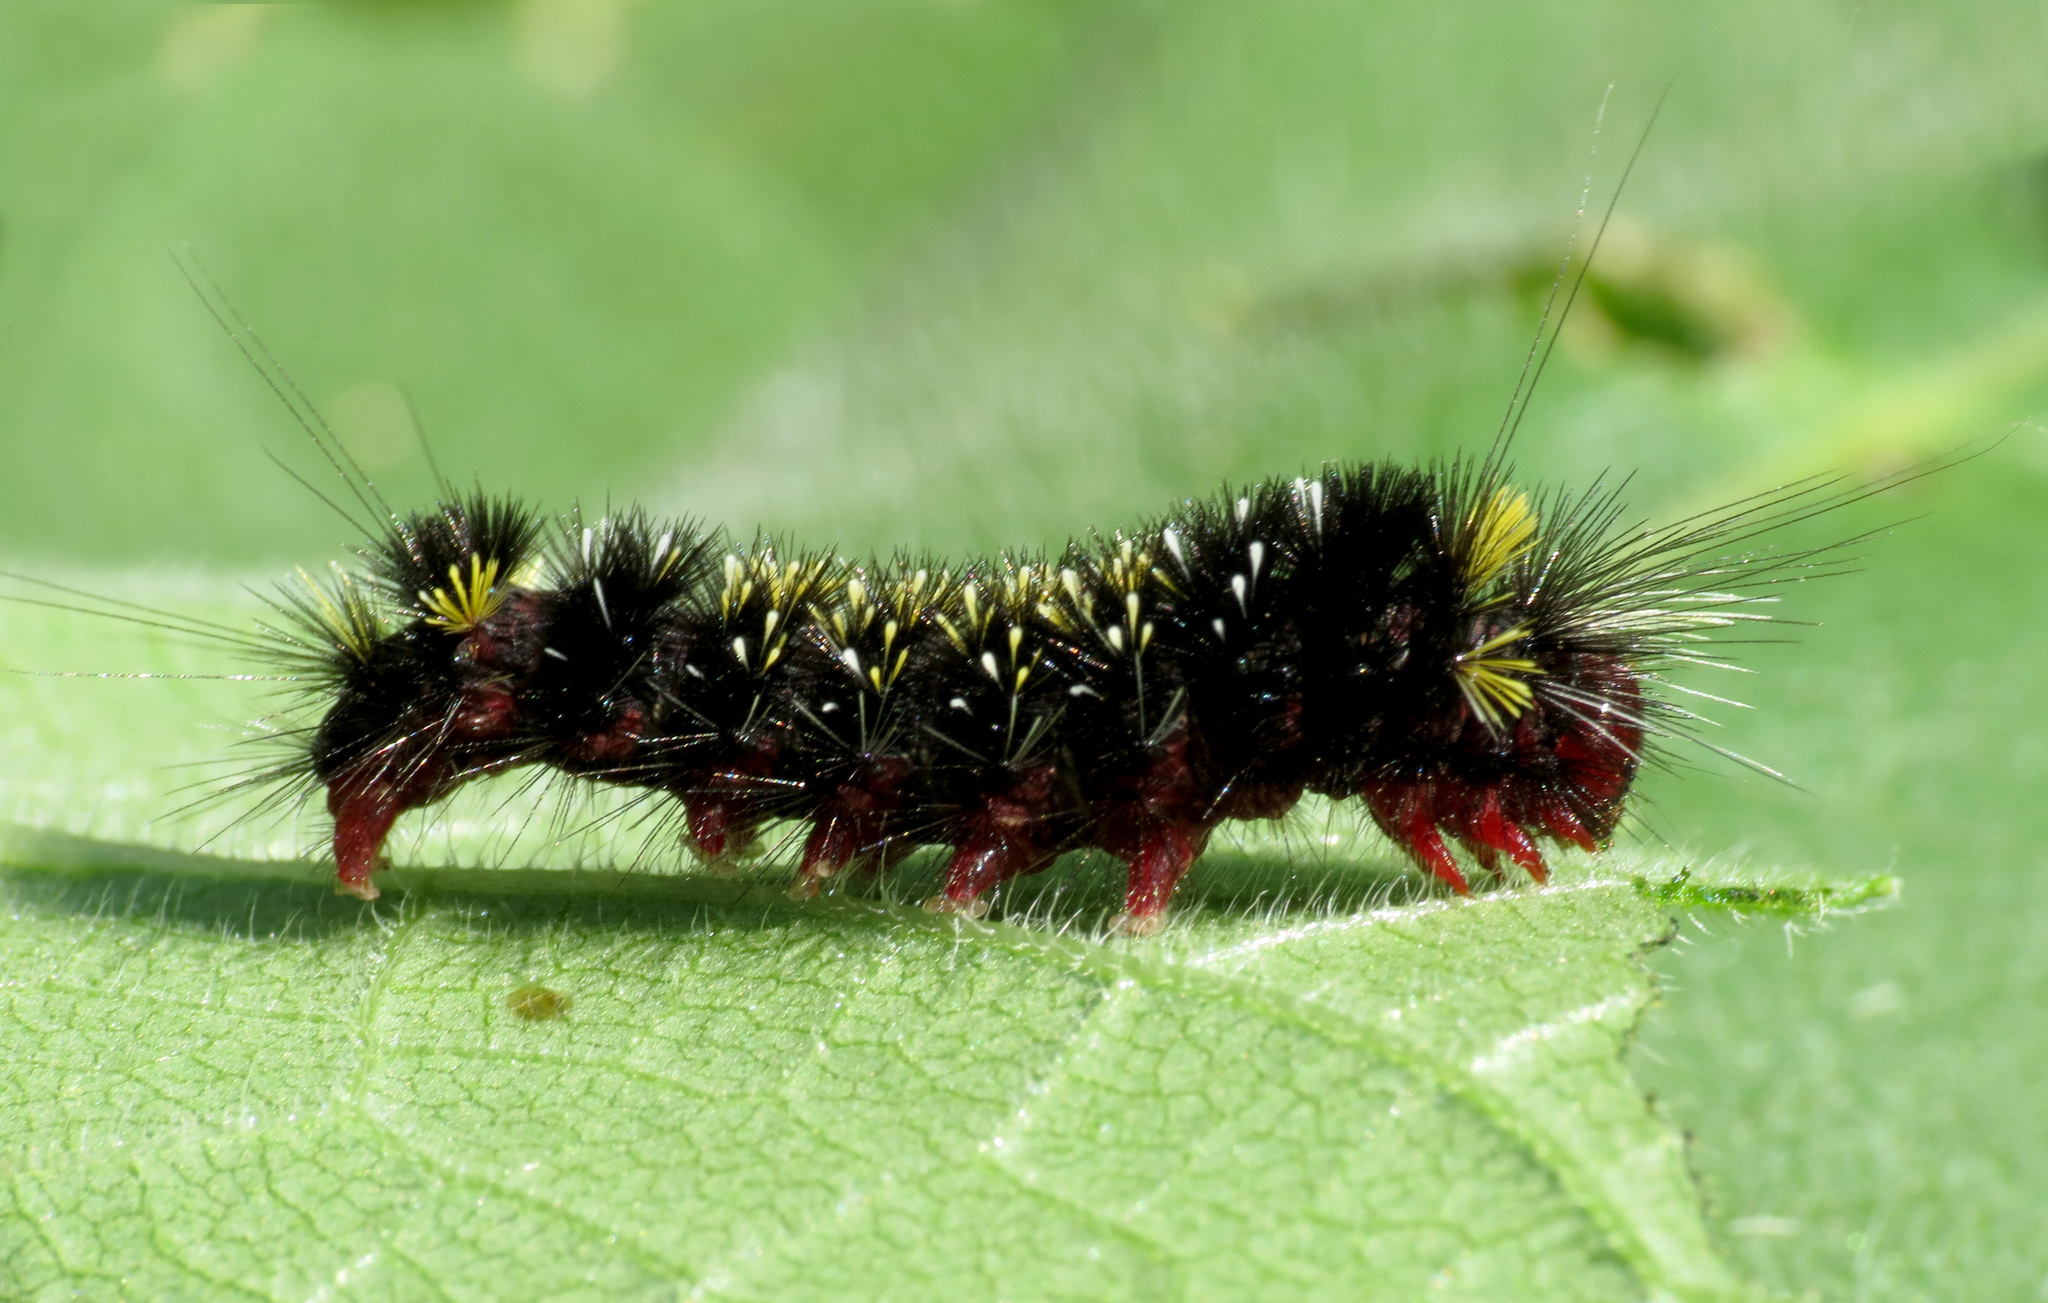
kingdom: Animalia
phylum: Arthropoda
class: Insecta
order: Lepidoptera
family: Erebidae
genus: Hypocrisias
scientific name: Hypocrisias minima
